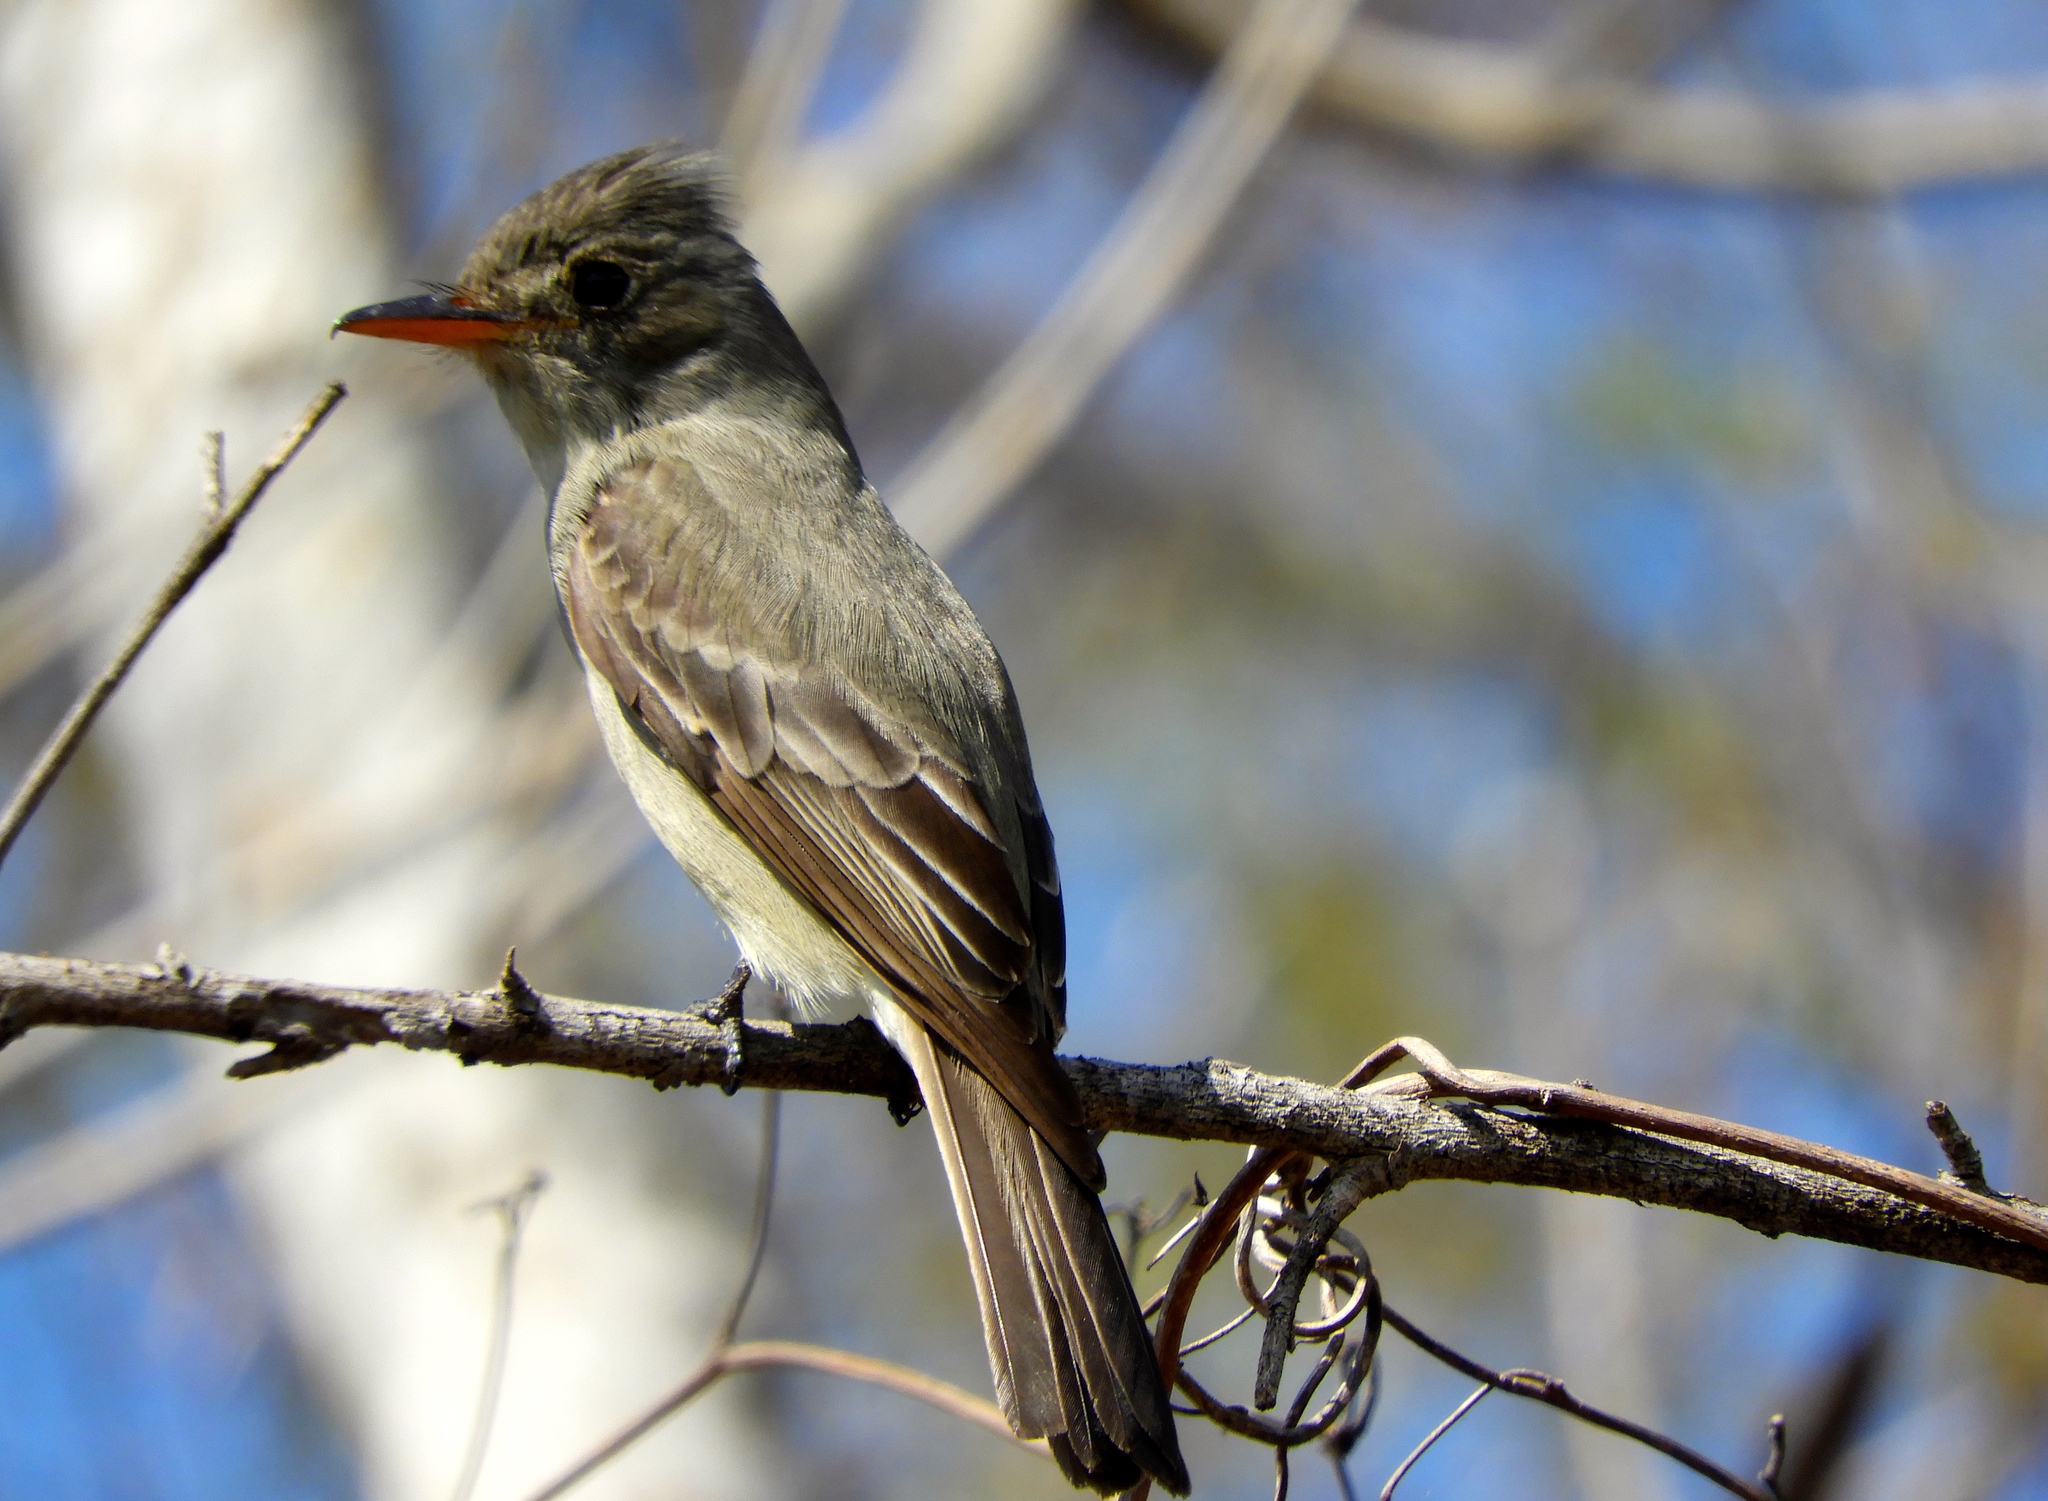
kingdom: Animalia
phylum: Chordata
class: Aves
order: Passeriformes
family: Tyrannidae
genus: Contopus
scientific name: Contopus pertinax
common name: Greater pewee
